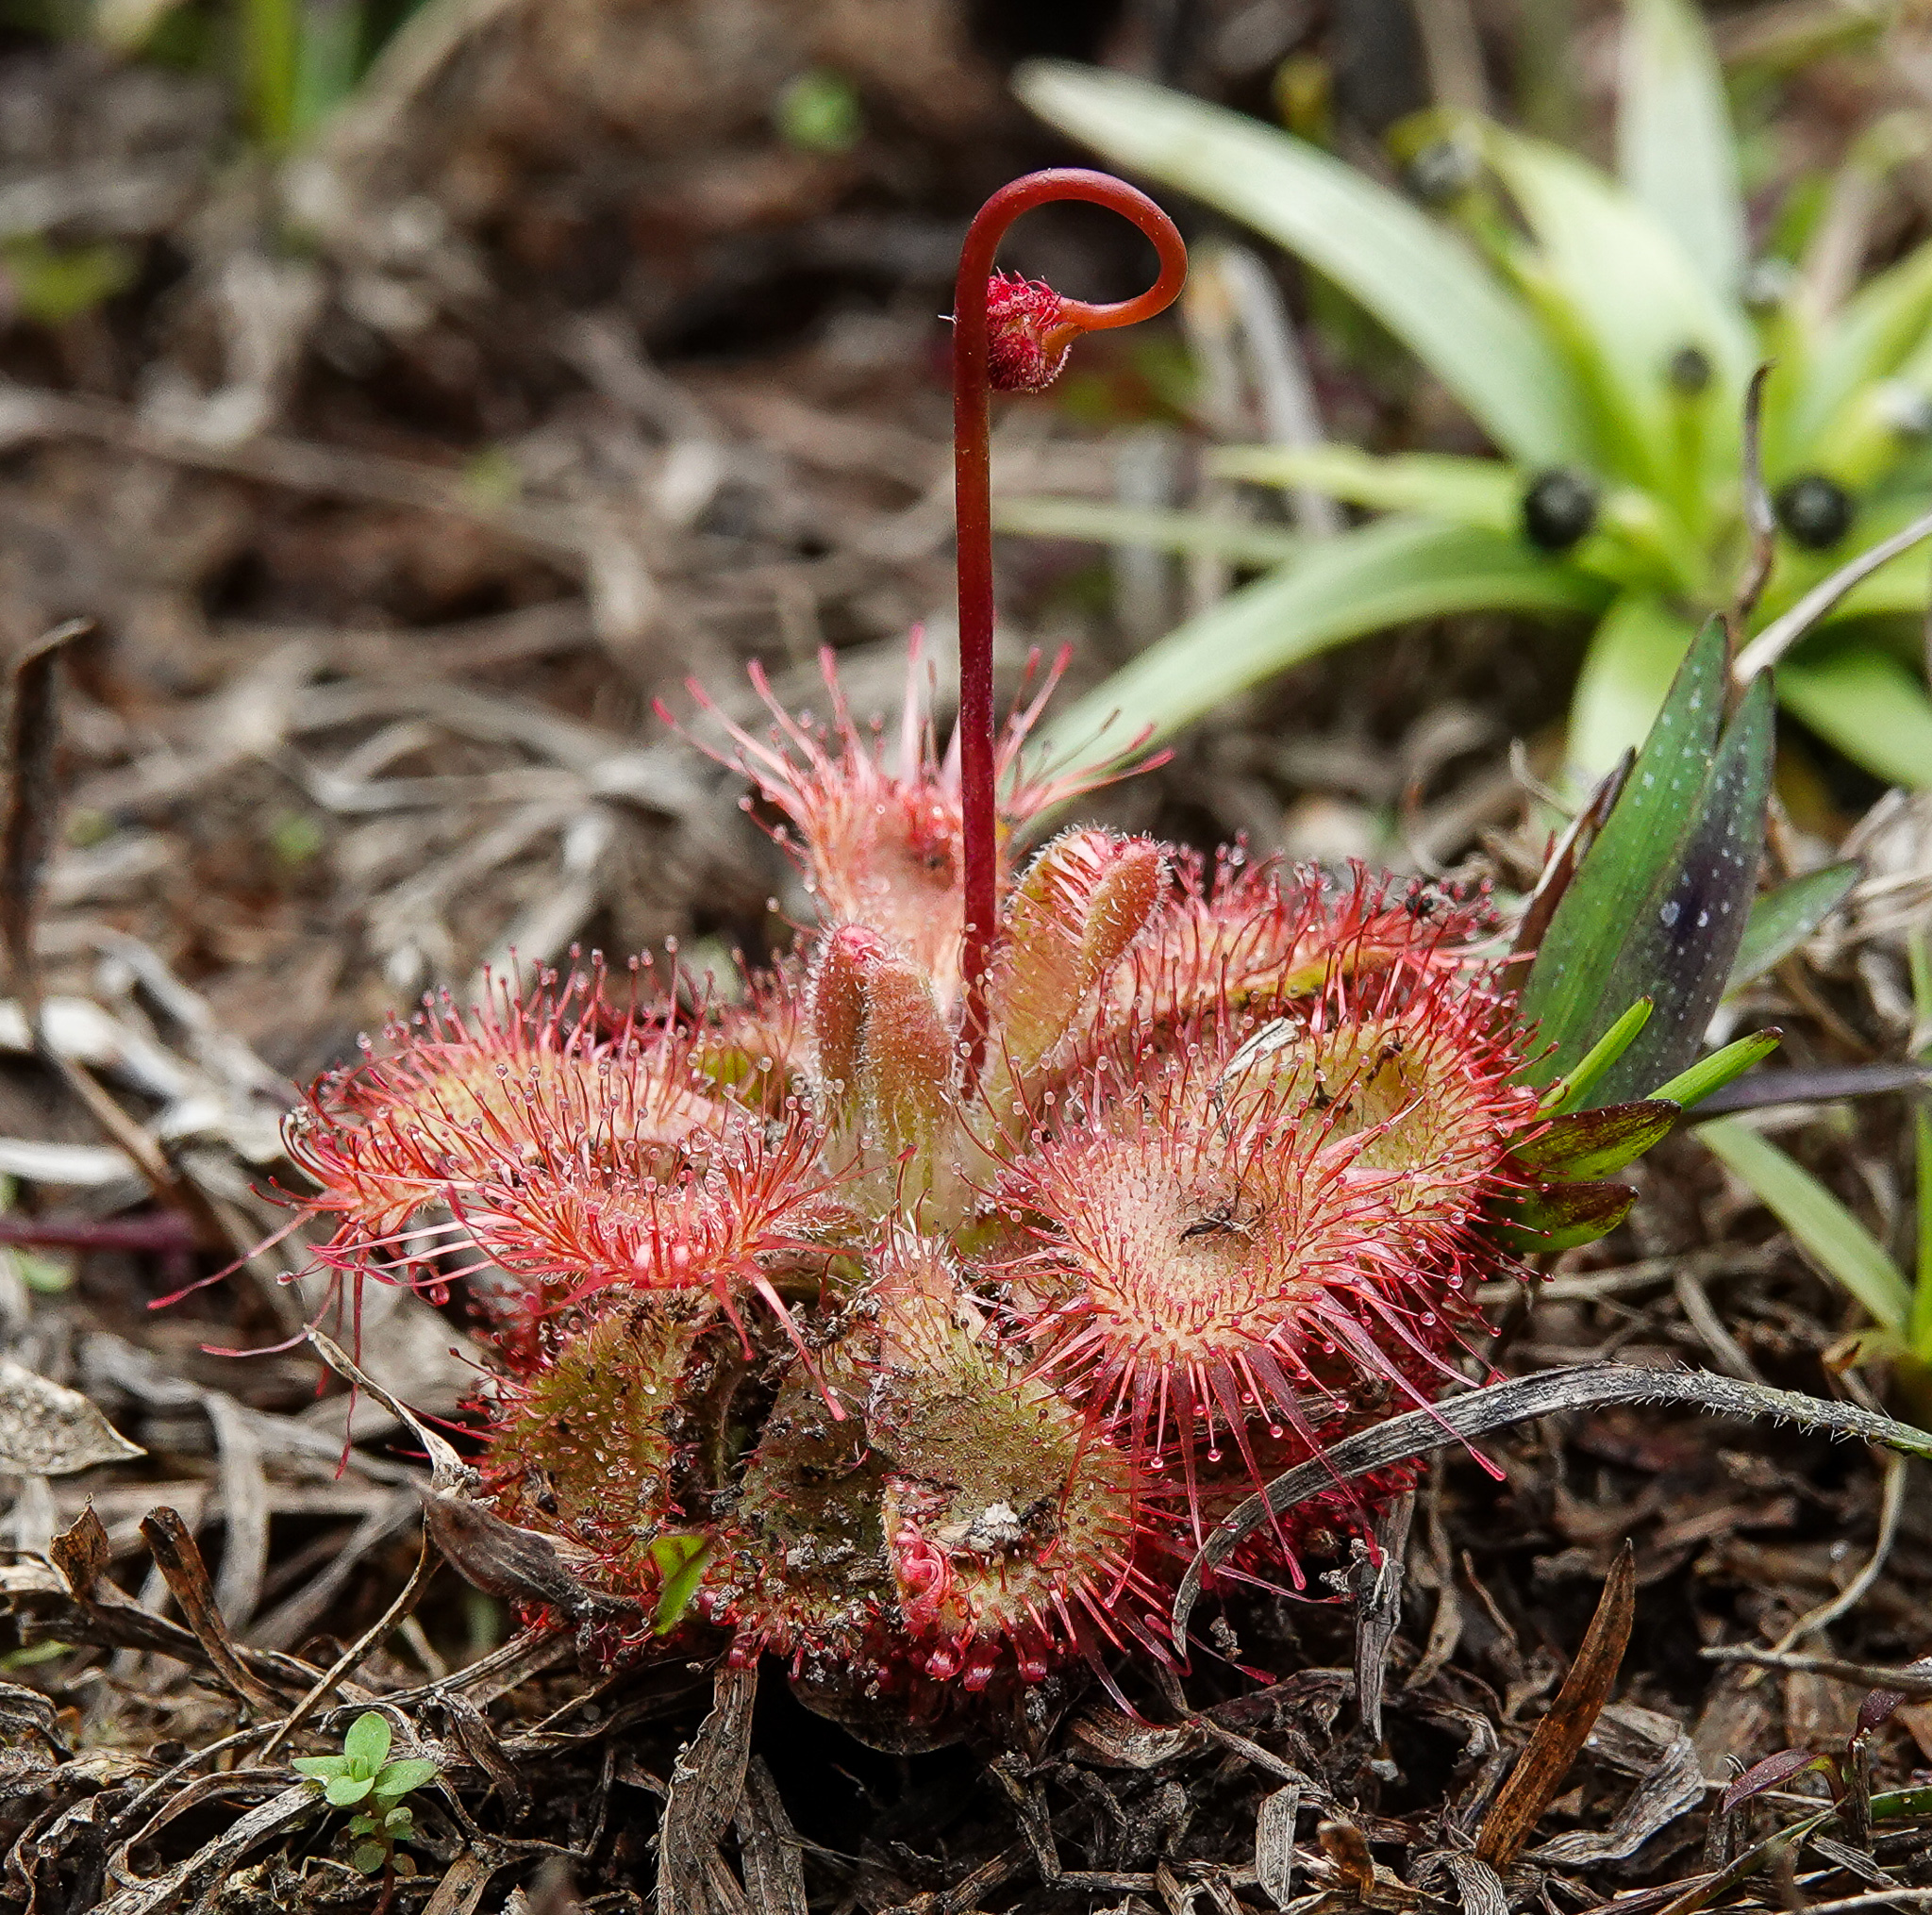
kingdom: Plantae
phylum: Tracheophyta
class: Magnoliopsida
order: Caryophyllales
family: Droseraceae
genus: Drosera
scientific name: Drosera spatulata
